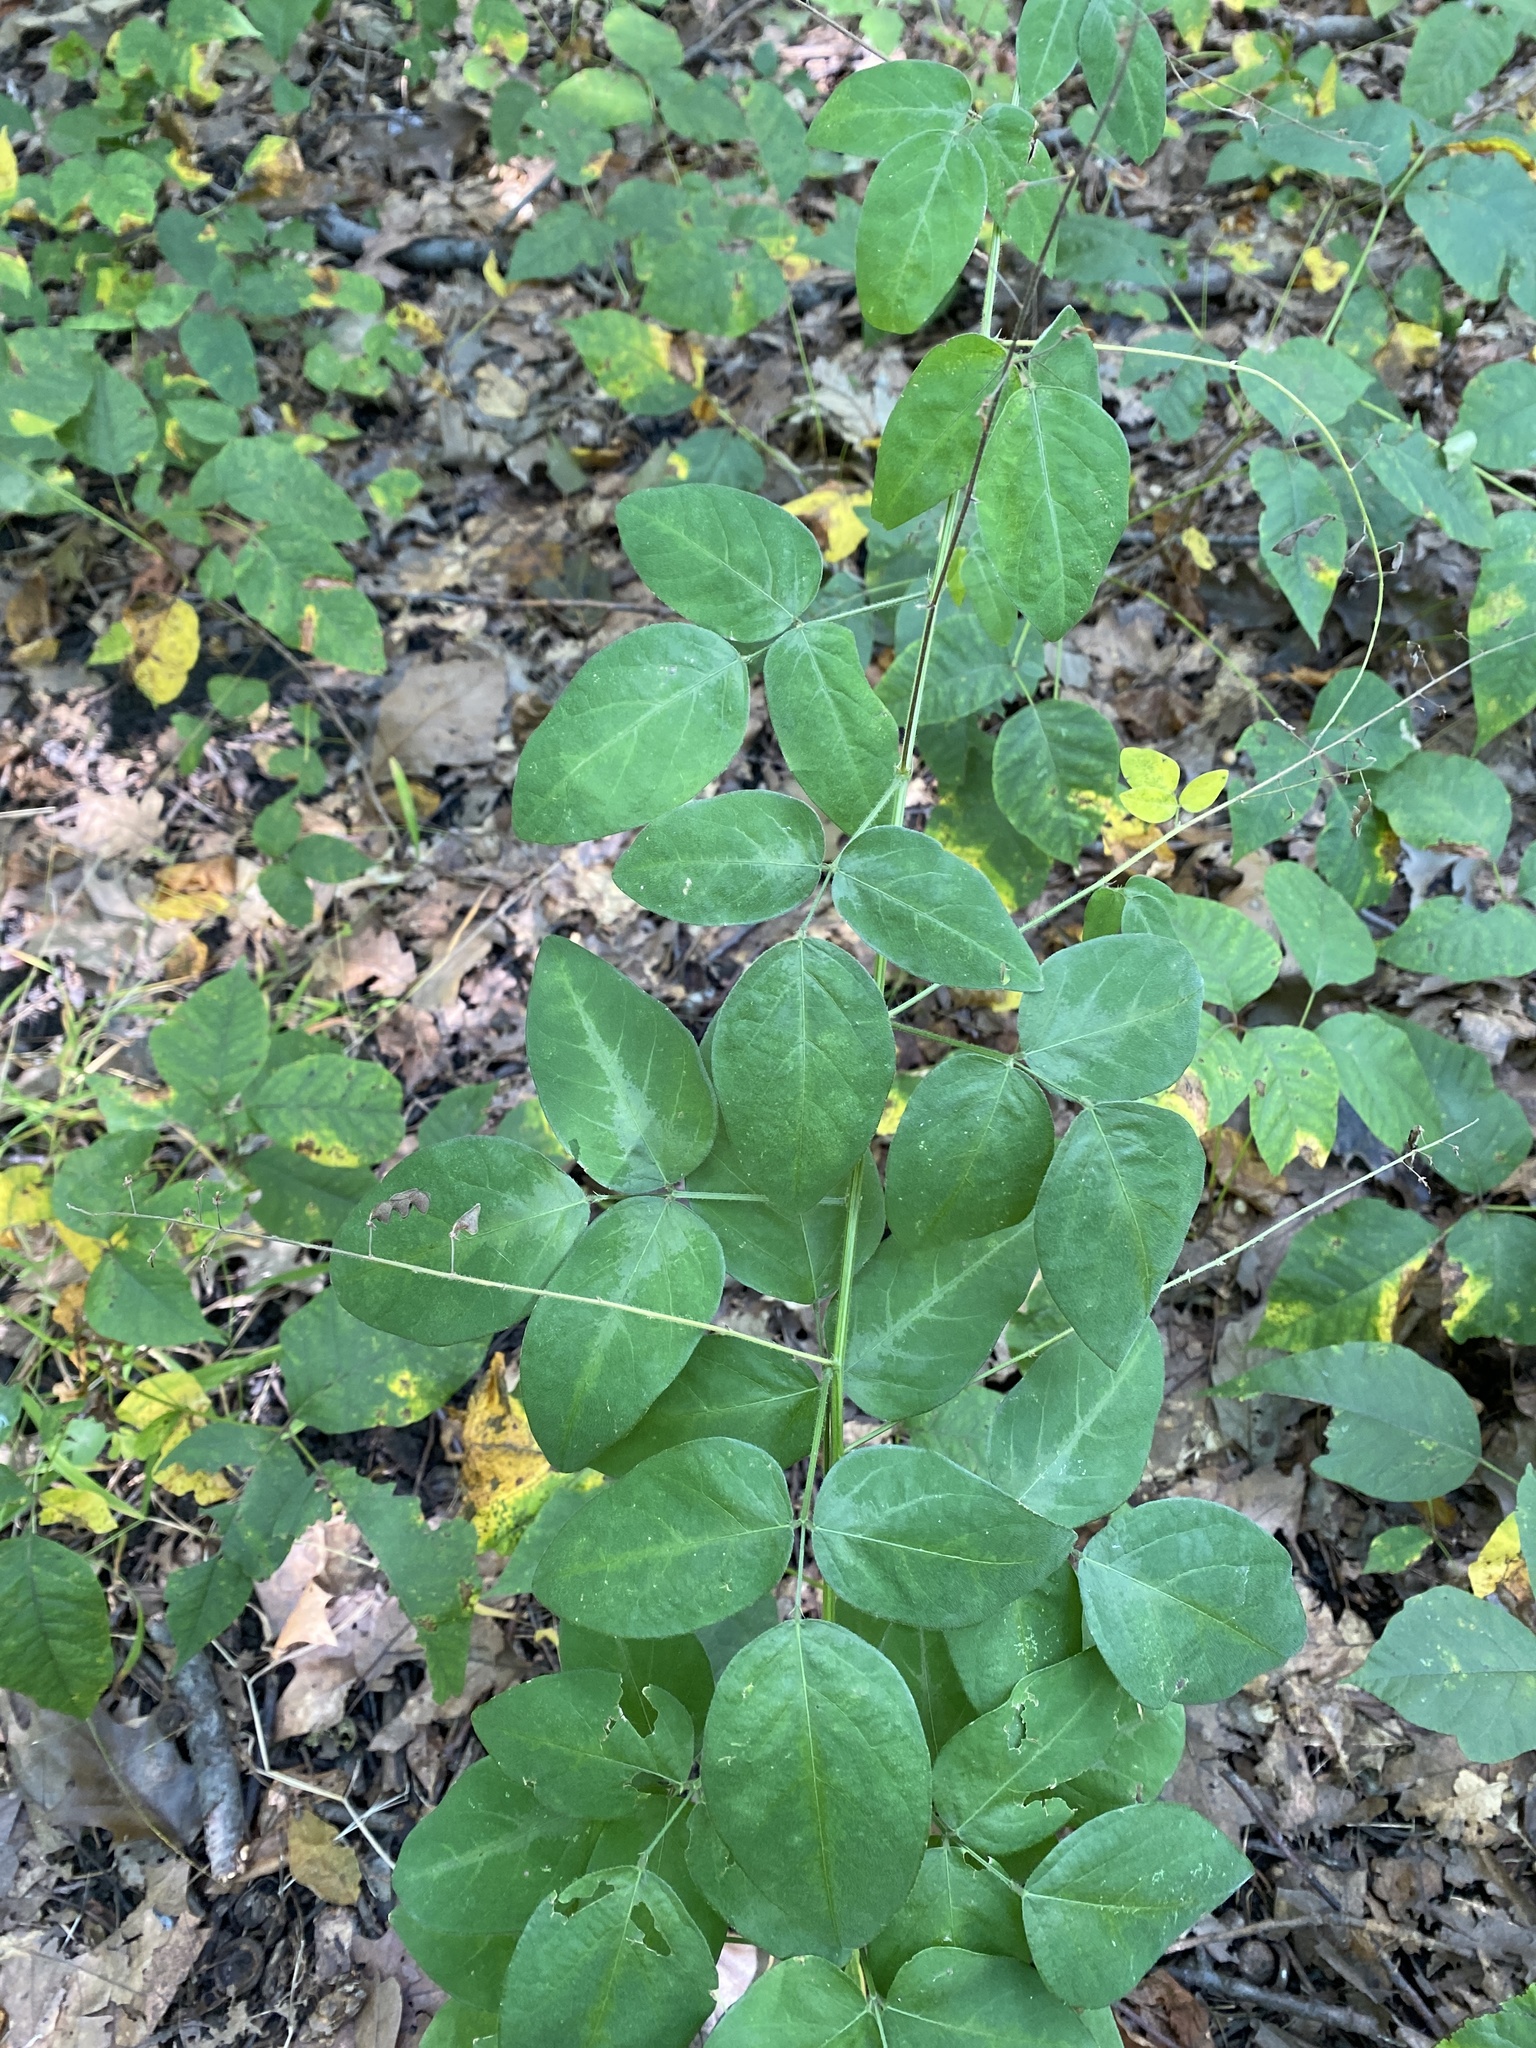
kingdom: Plantae
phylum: Tracheophyta
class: Magnoliopsida
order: Fabales
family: Fabaceae
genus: Desmodium
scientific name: Desmodium perplexum
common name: Perplexed tick trefoil
